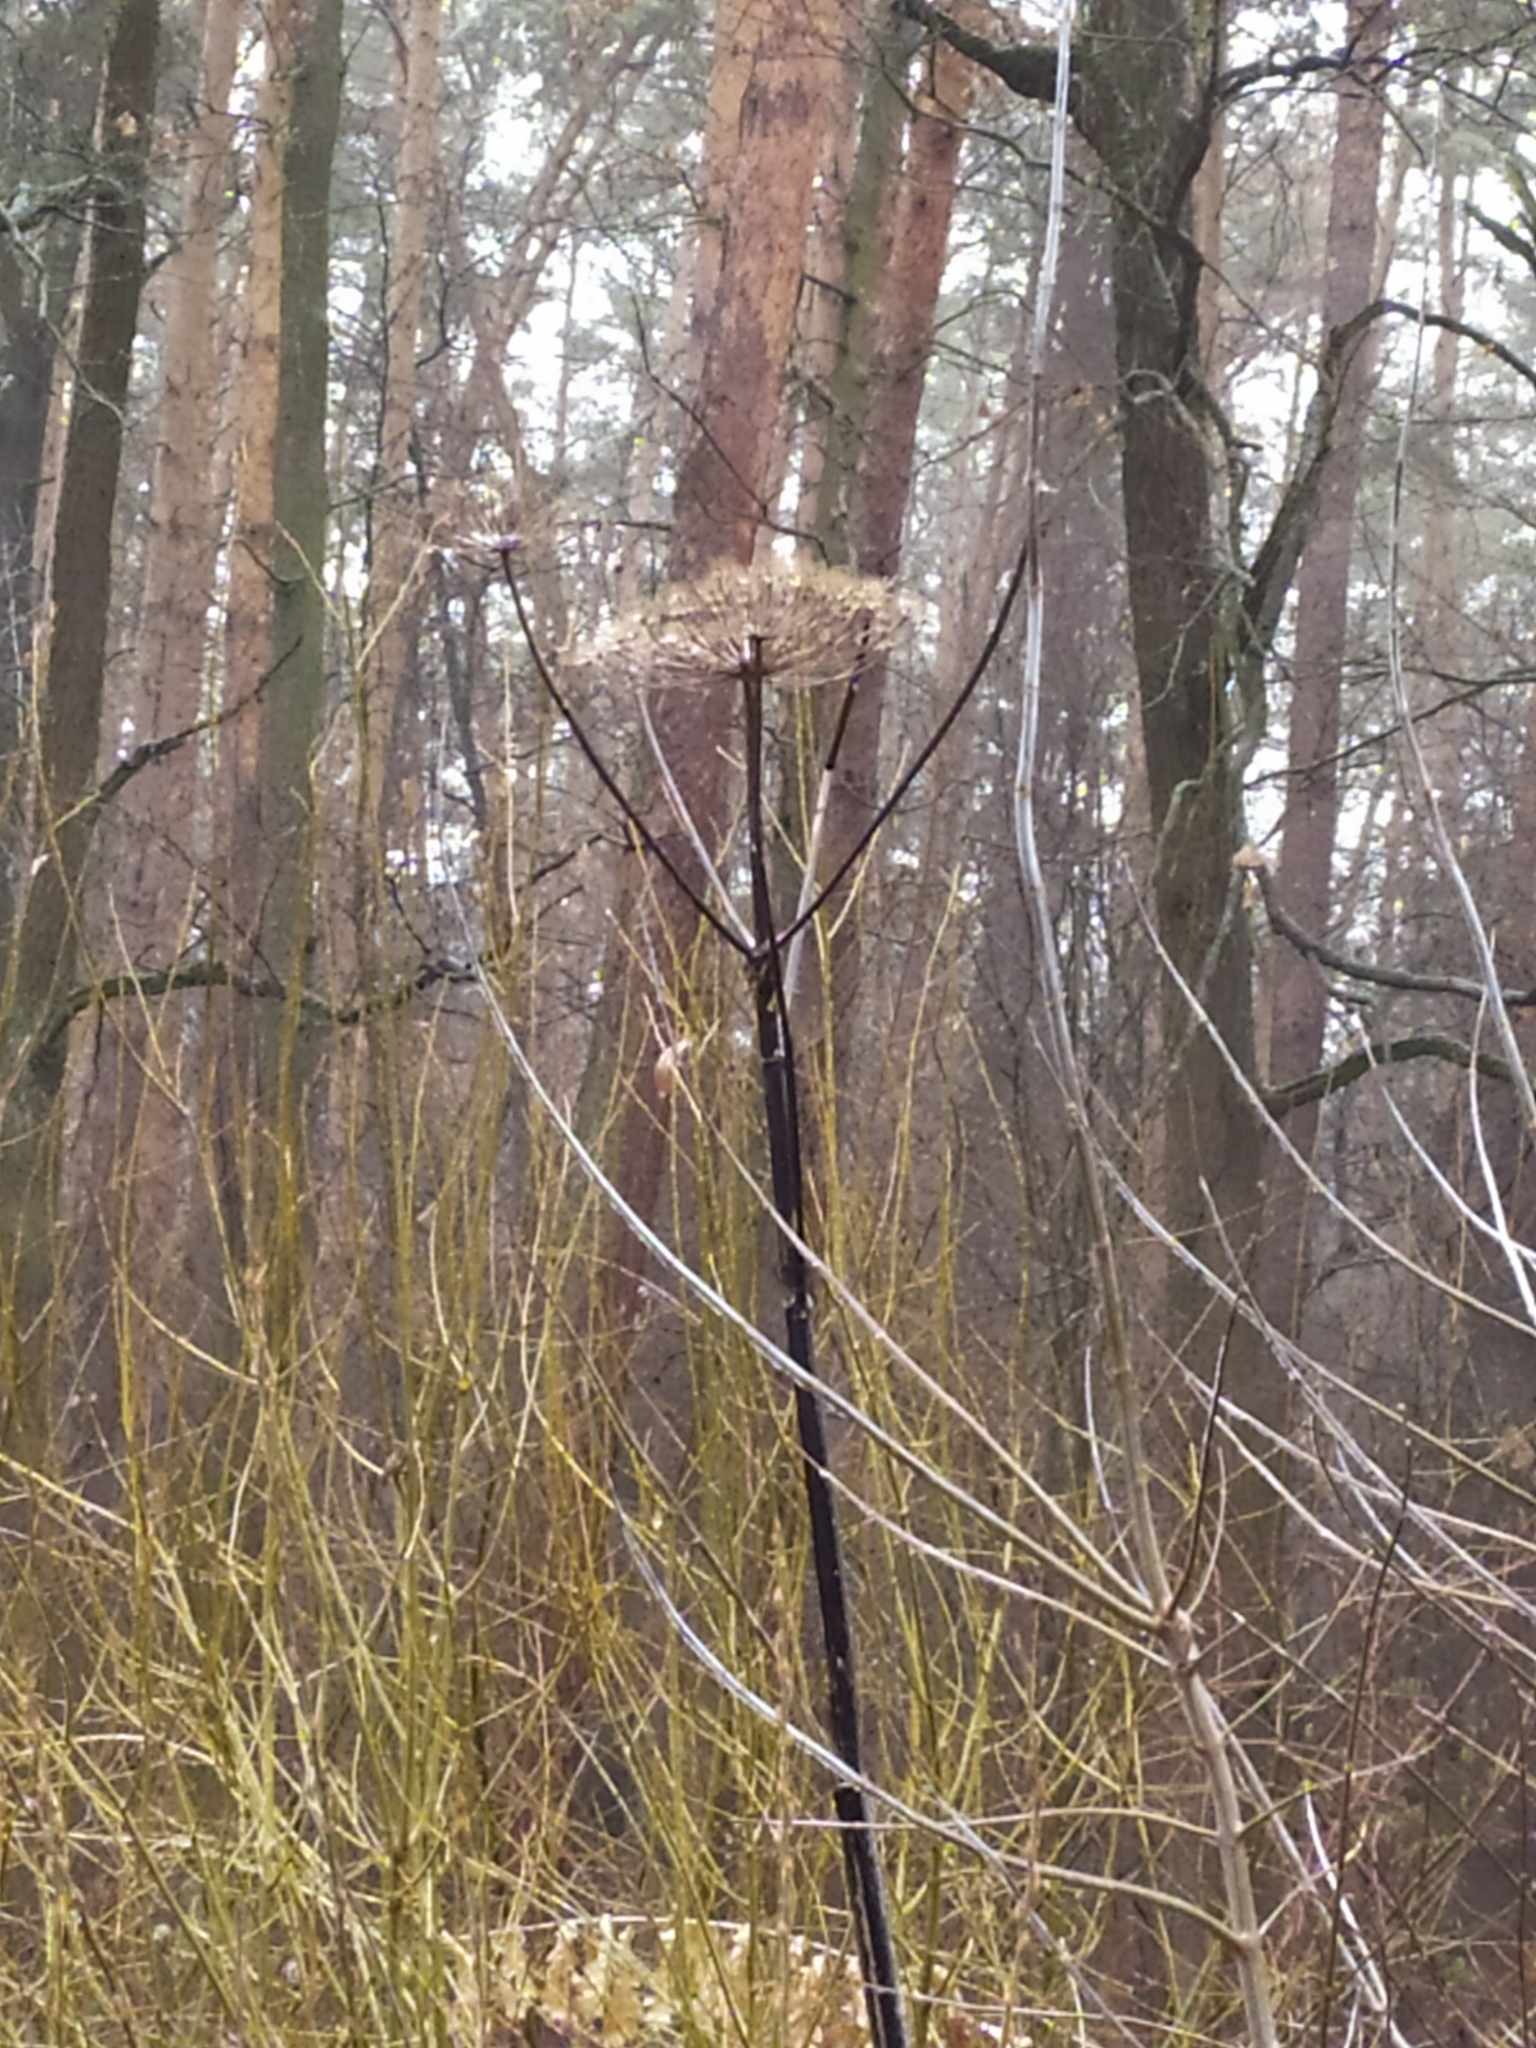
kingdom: Plantae
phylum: Tracheophyta
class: Magnoliopsida
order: Apiales
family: Apiaceae
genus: Heracleum
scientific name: Heracleum sosnowskyi
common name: Sosnowsky's hogweed
